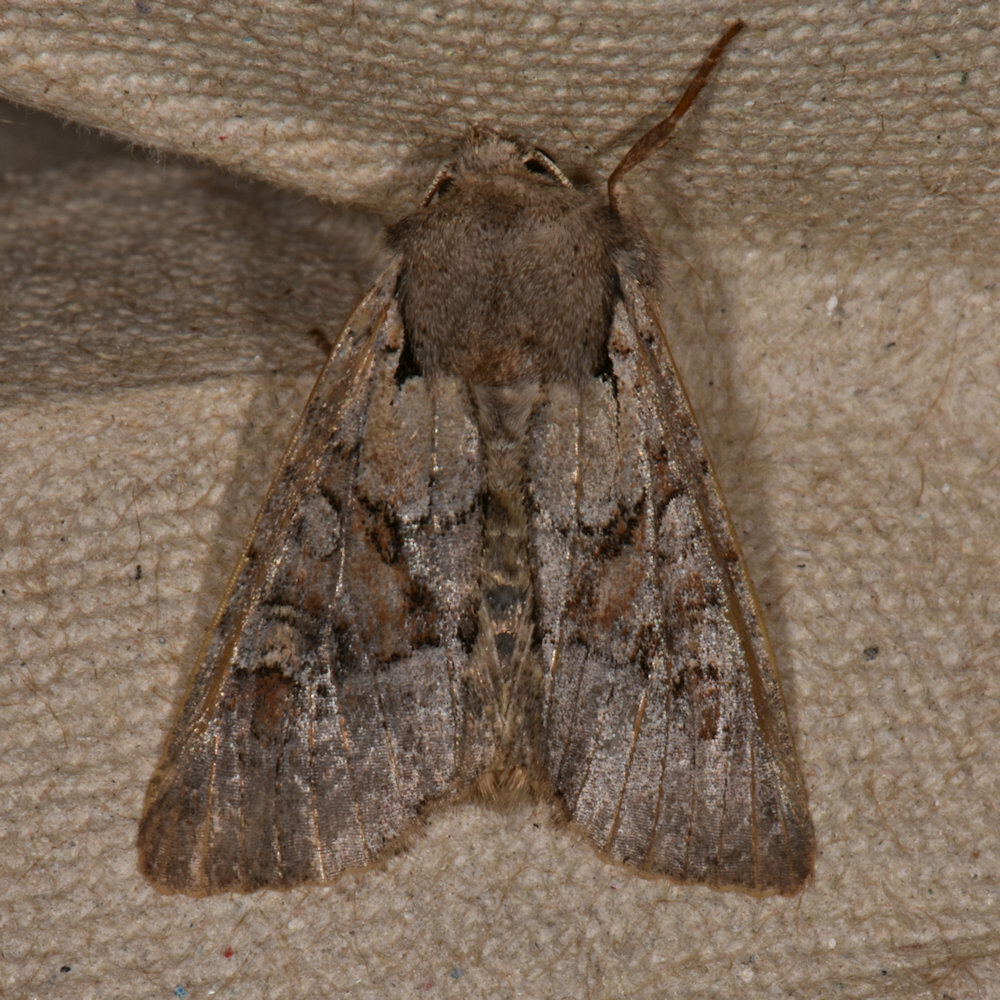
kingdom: Animalia
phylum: Arthropoda
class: Insecta
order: Lepidoptera
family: Noctuidae
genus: Apamea
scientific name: Apamea sordens
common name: Rustic shoulder-knot
